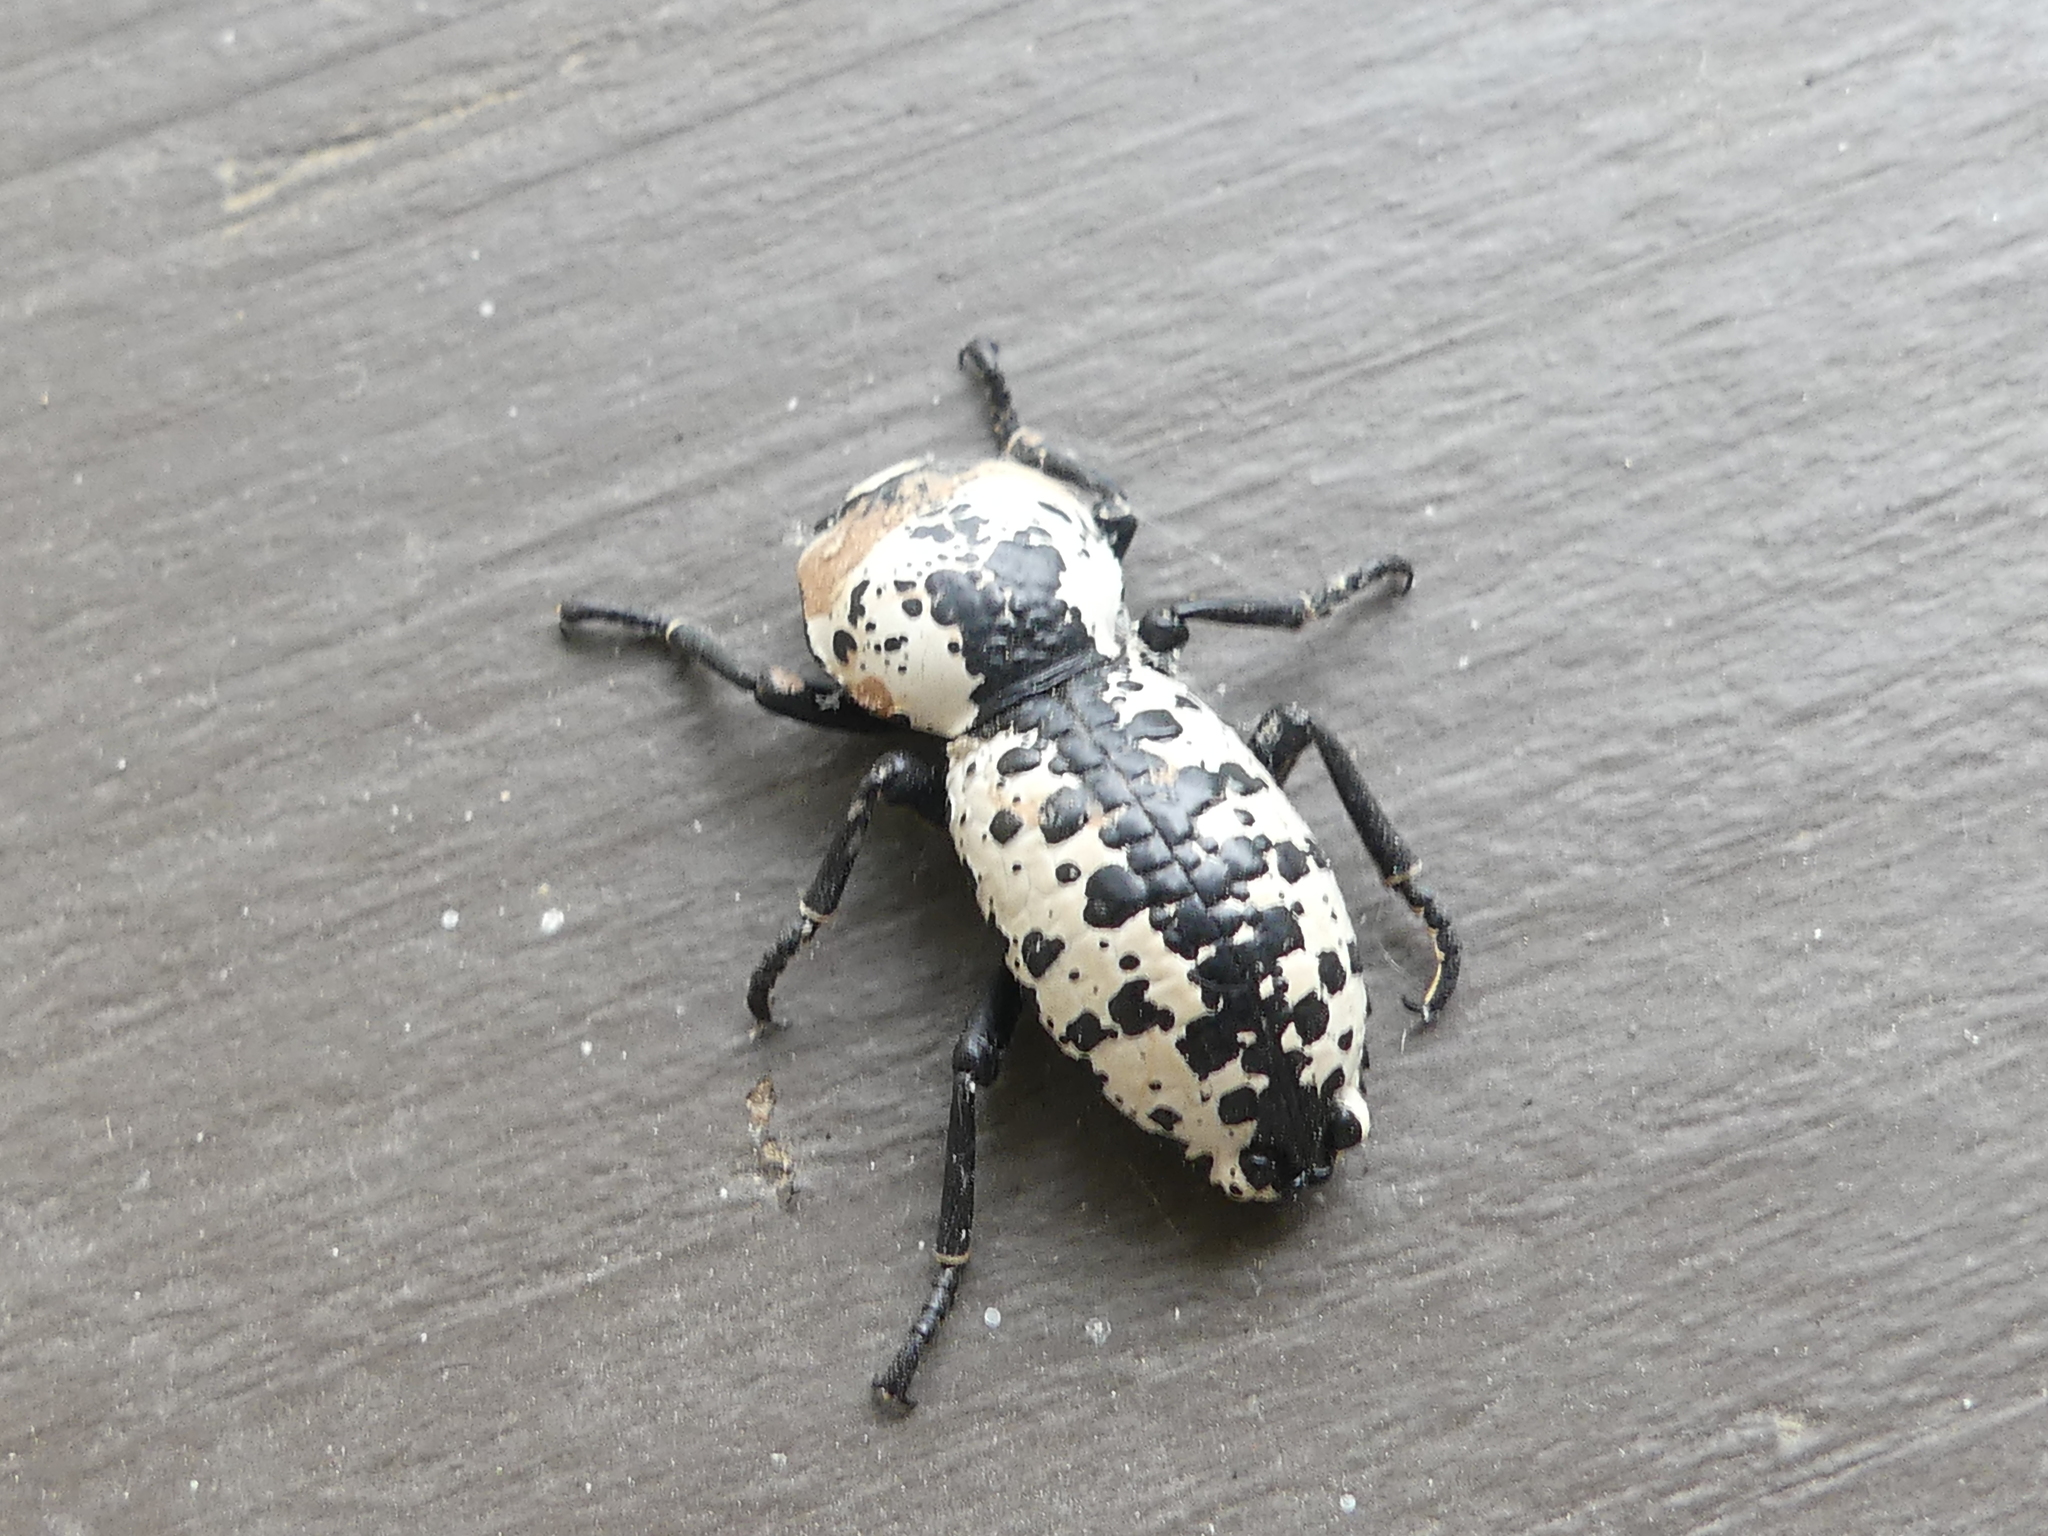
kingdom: Animalia
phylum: Arthropoda
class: Insecta
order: Coleoptera
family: Zopheridae
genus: Zopherus
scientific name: Zopherus nodulosus
